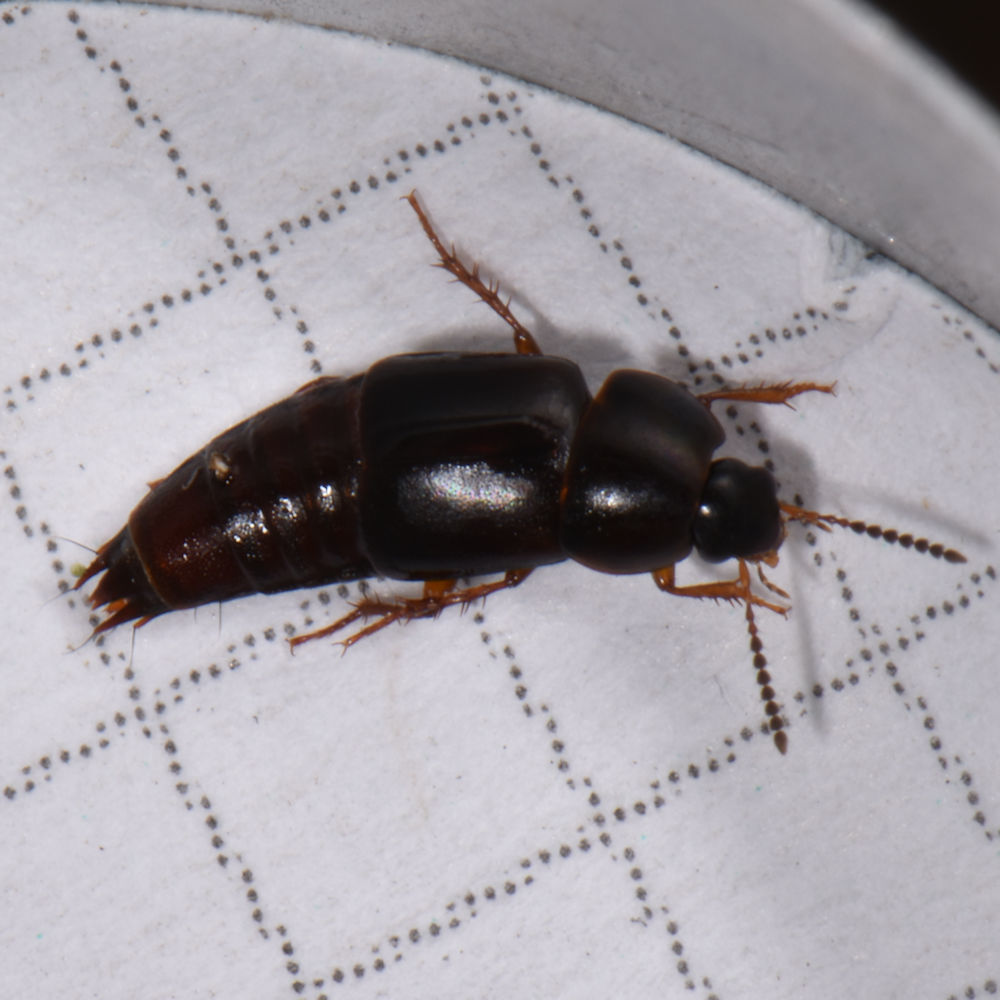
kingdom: Animalia
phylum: Arthropoda
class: Insecta
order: Coleoptera
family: Staphylinidae
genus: Tachinus
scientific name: Tachinus memnonius
